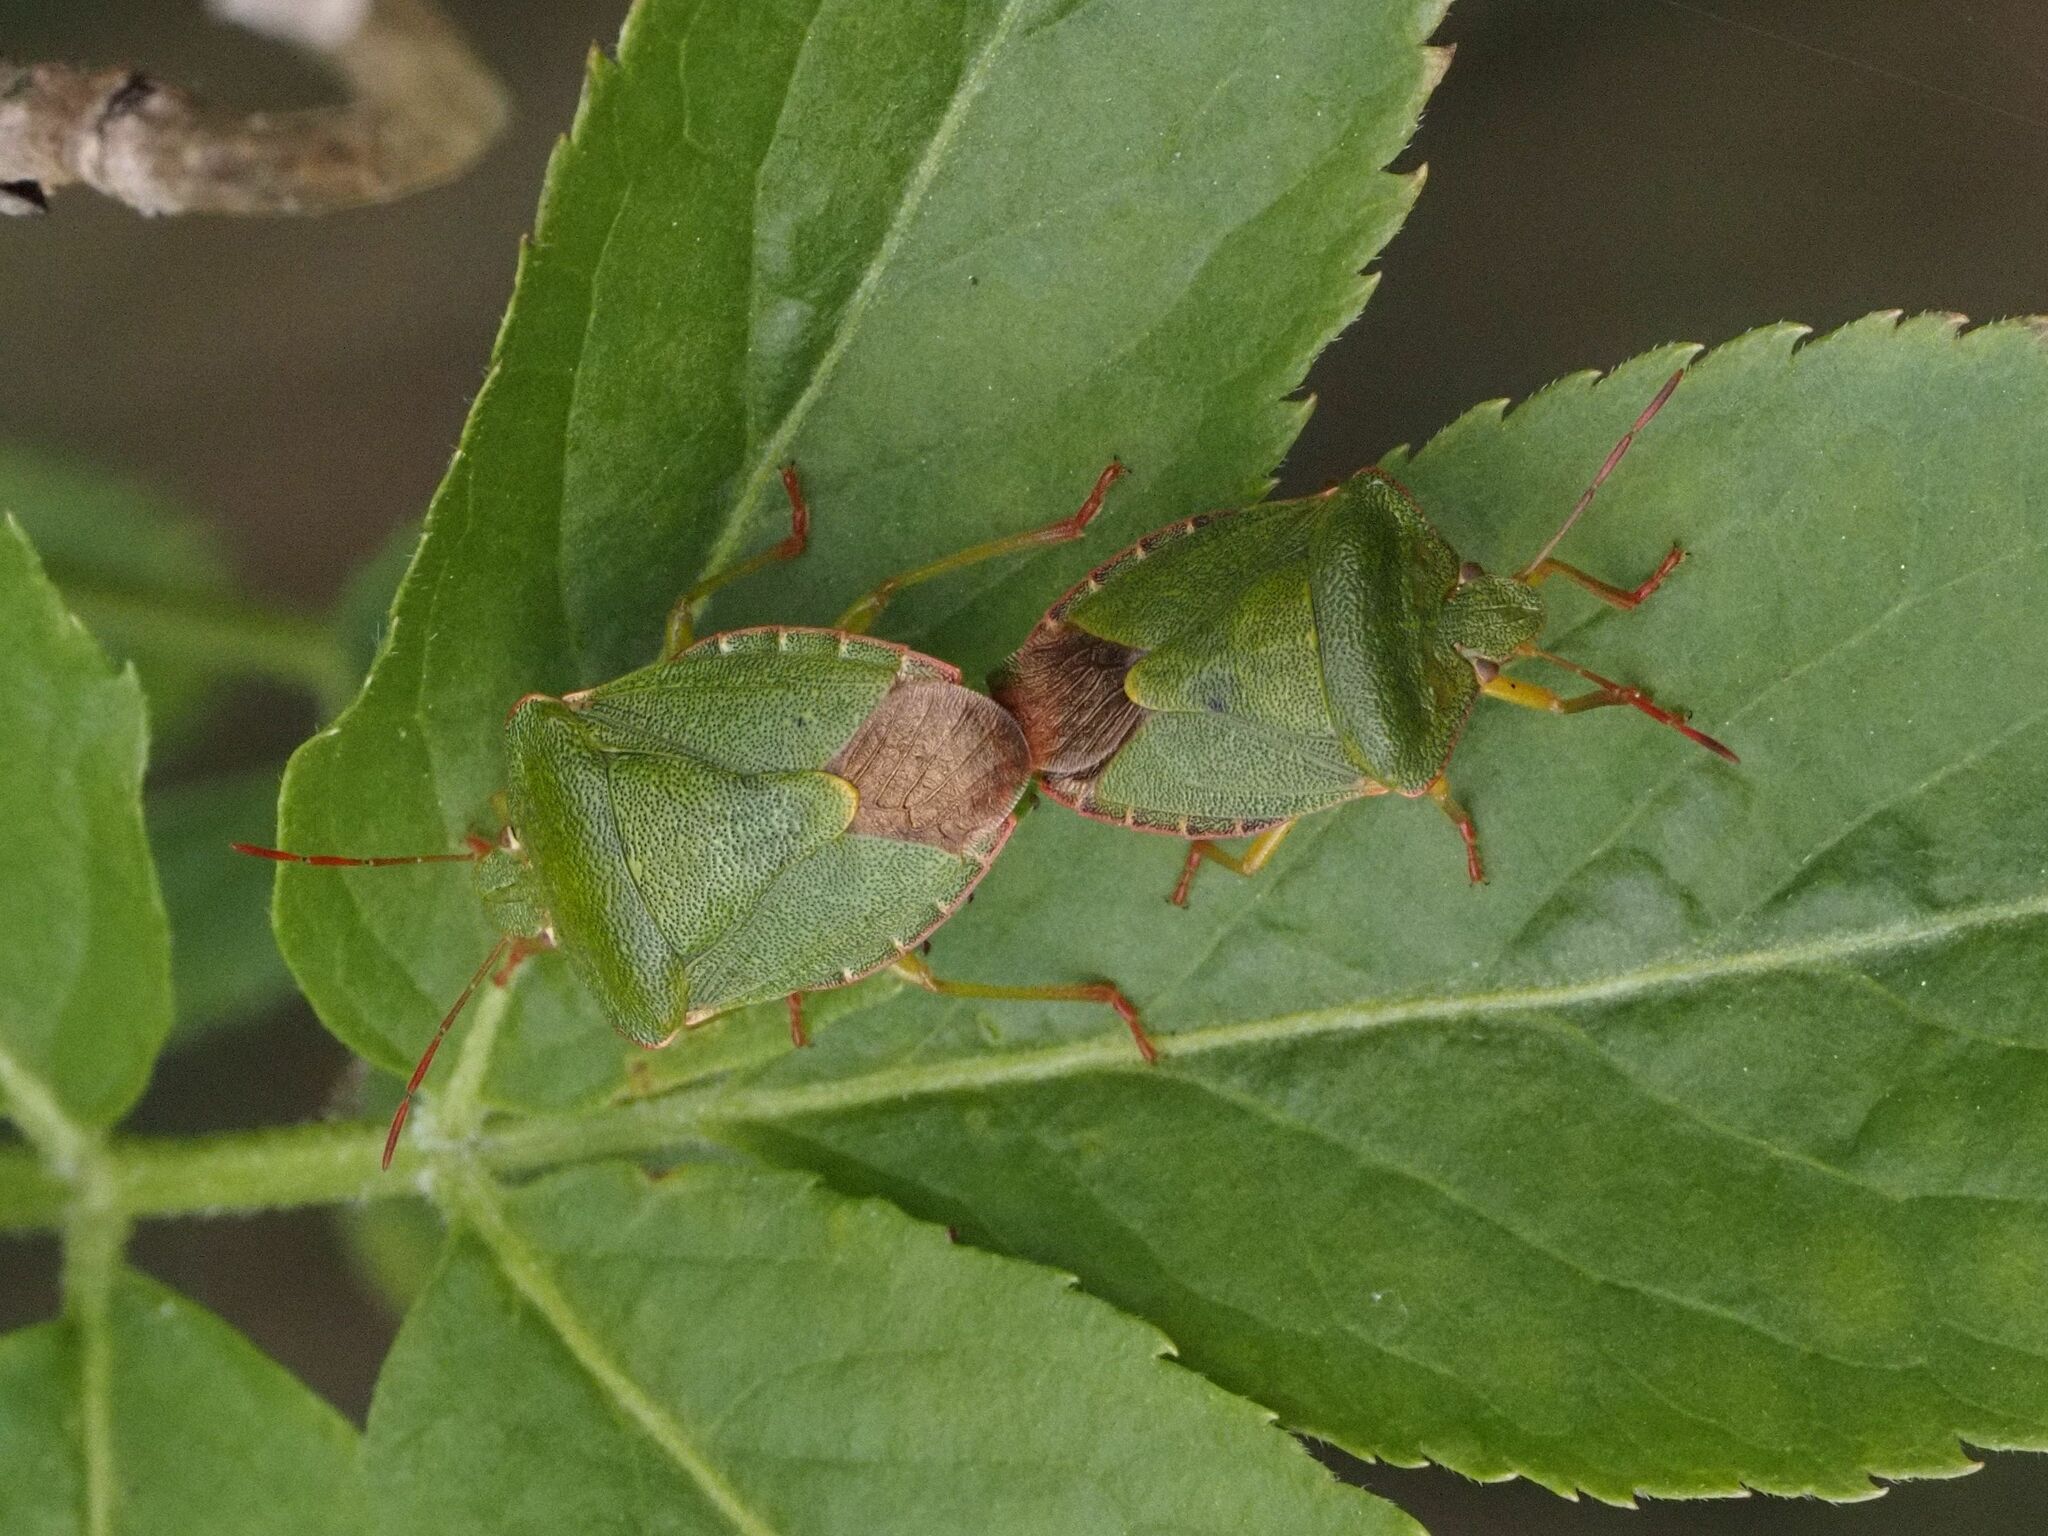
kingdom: Animalia
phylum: Arthropoda
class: Insecta
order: Hemiptera
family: Pentatomidae
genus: Palomena
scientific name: Palomena prasina
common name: Green shieldbug
